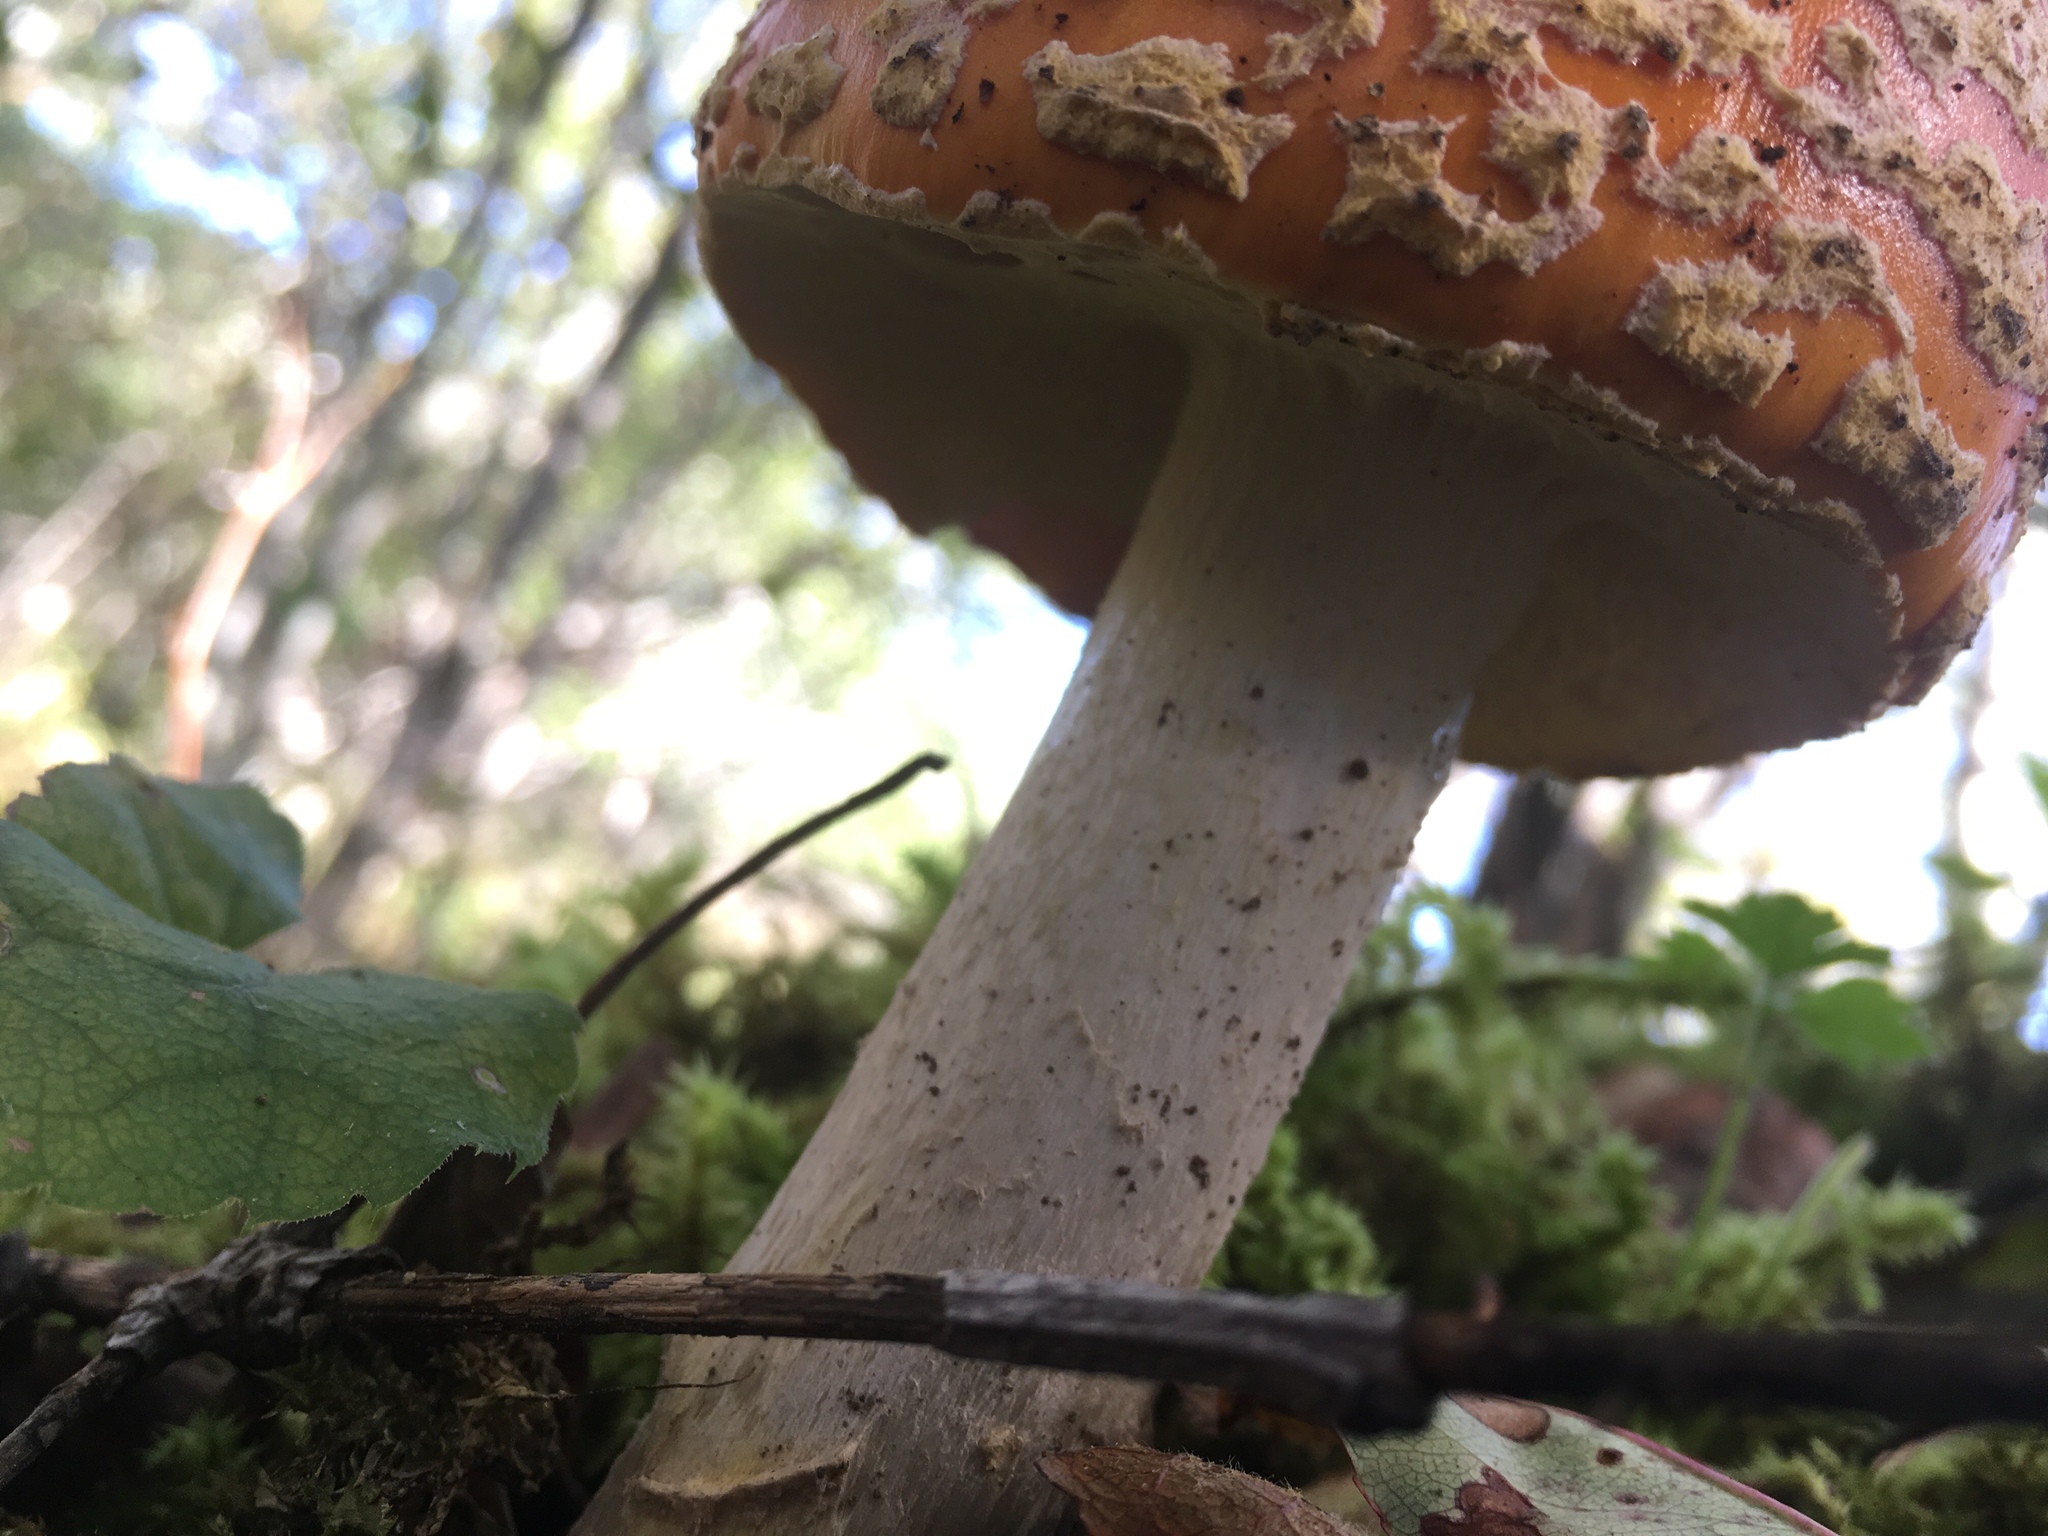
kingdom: Fungi
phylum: Basidiomycota
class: Agaricomycetes
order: Agaricales
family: Amanitaceae
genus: Amanita
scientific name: Amanita muscaria
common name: Fly agaric
